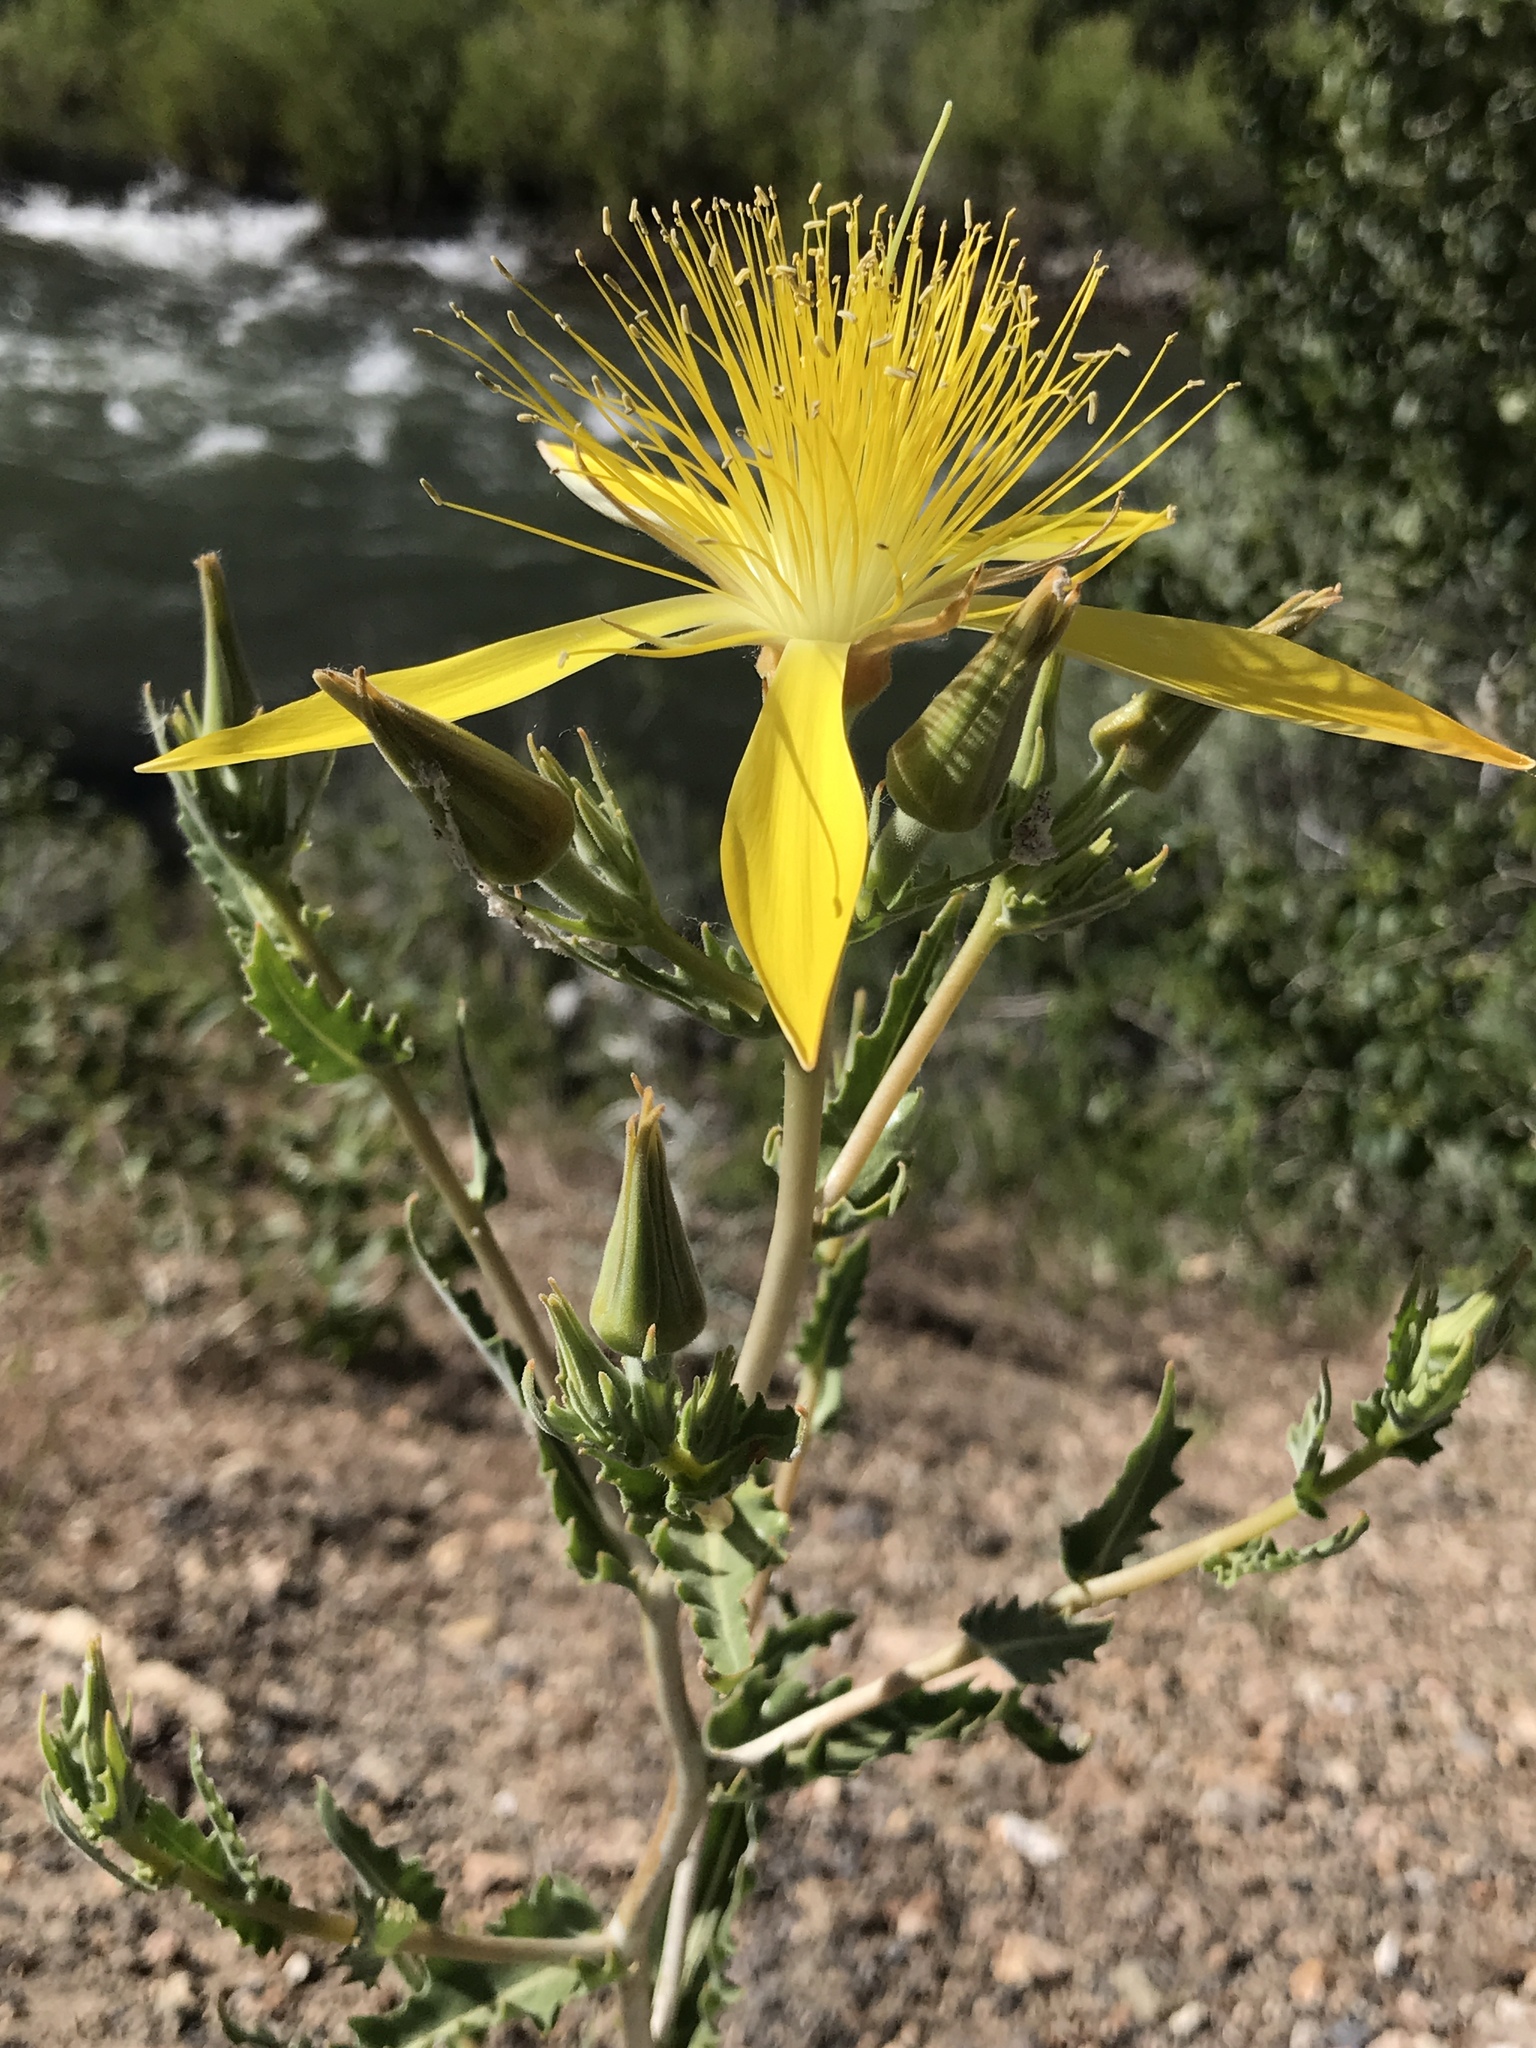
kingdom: Plantae
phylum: Tracheophyta
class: Magnoliopsida
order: Cornales
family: Loasaceae
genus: Mentzelia
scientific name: Mentzelia laevicaulis
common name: Smooth-stem blazingstar
